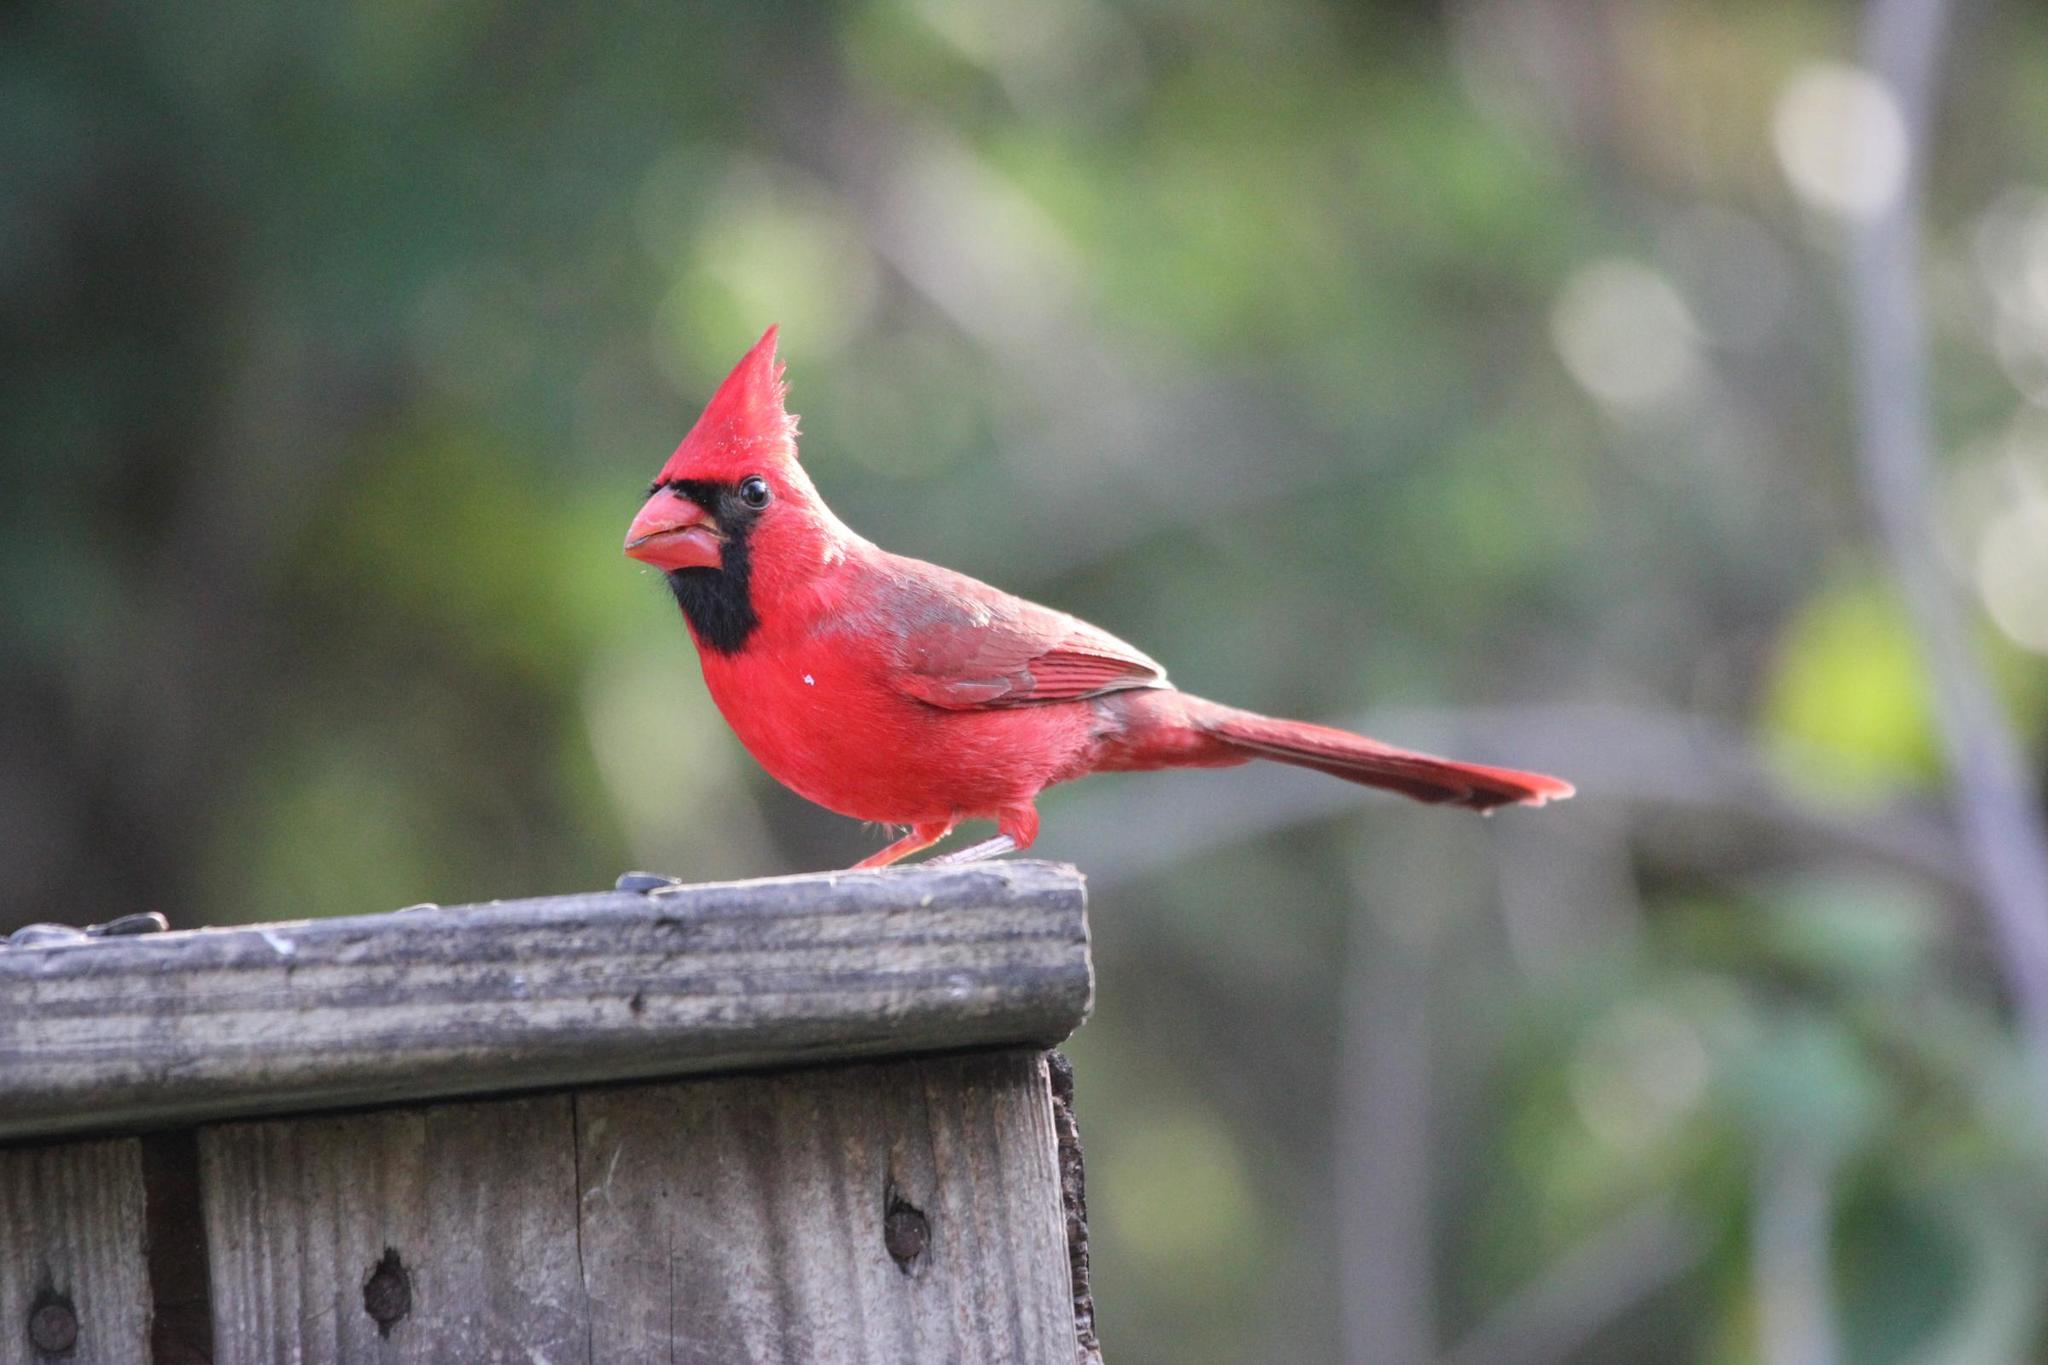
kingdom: Animalia
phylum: Chordata
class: Aves
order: Passeriformes
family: Cardinalidae
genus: Cardinalis
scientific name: Cardinalis cardinalis
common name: Northern cardinal
